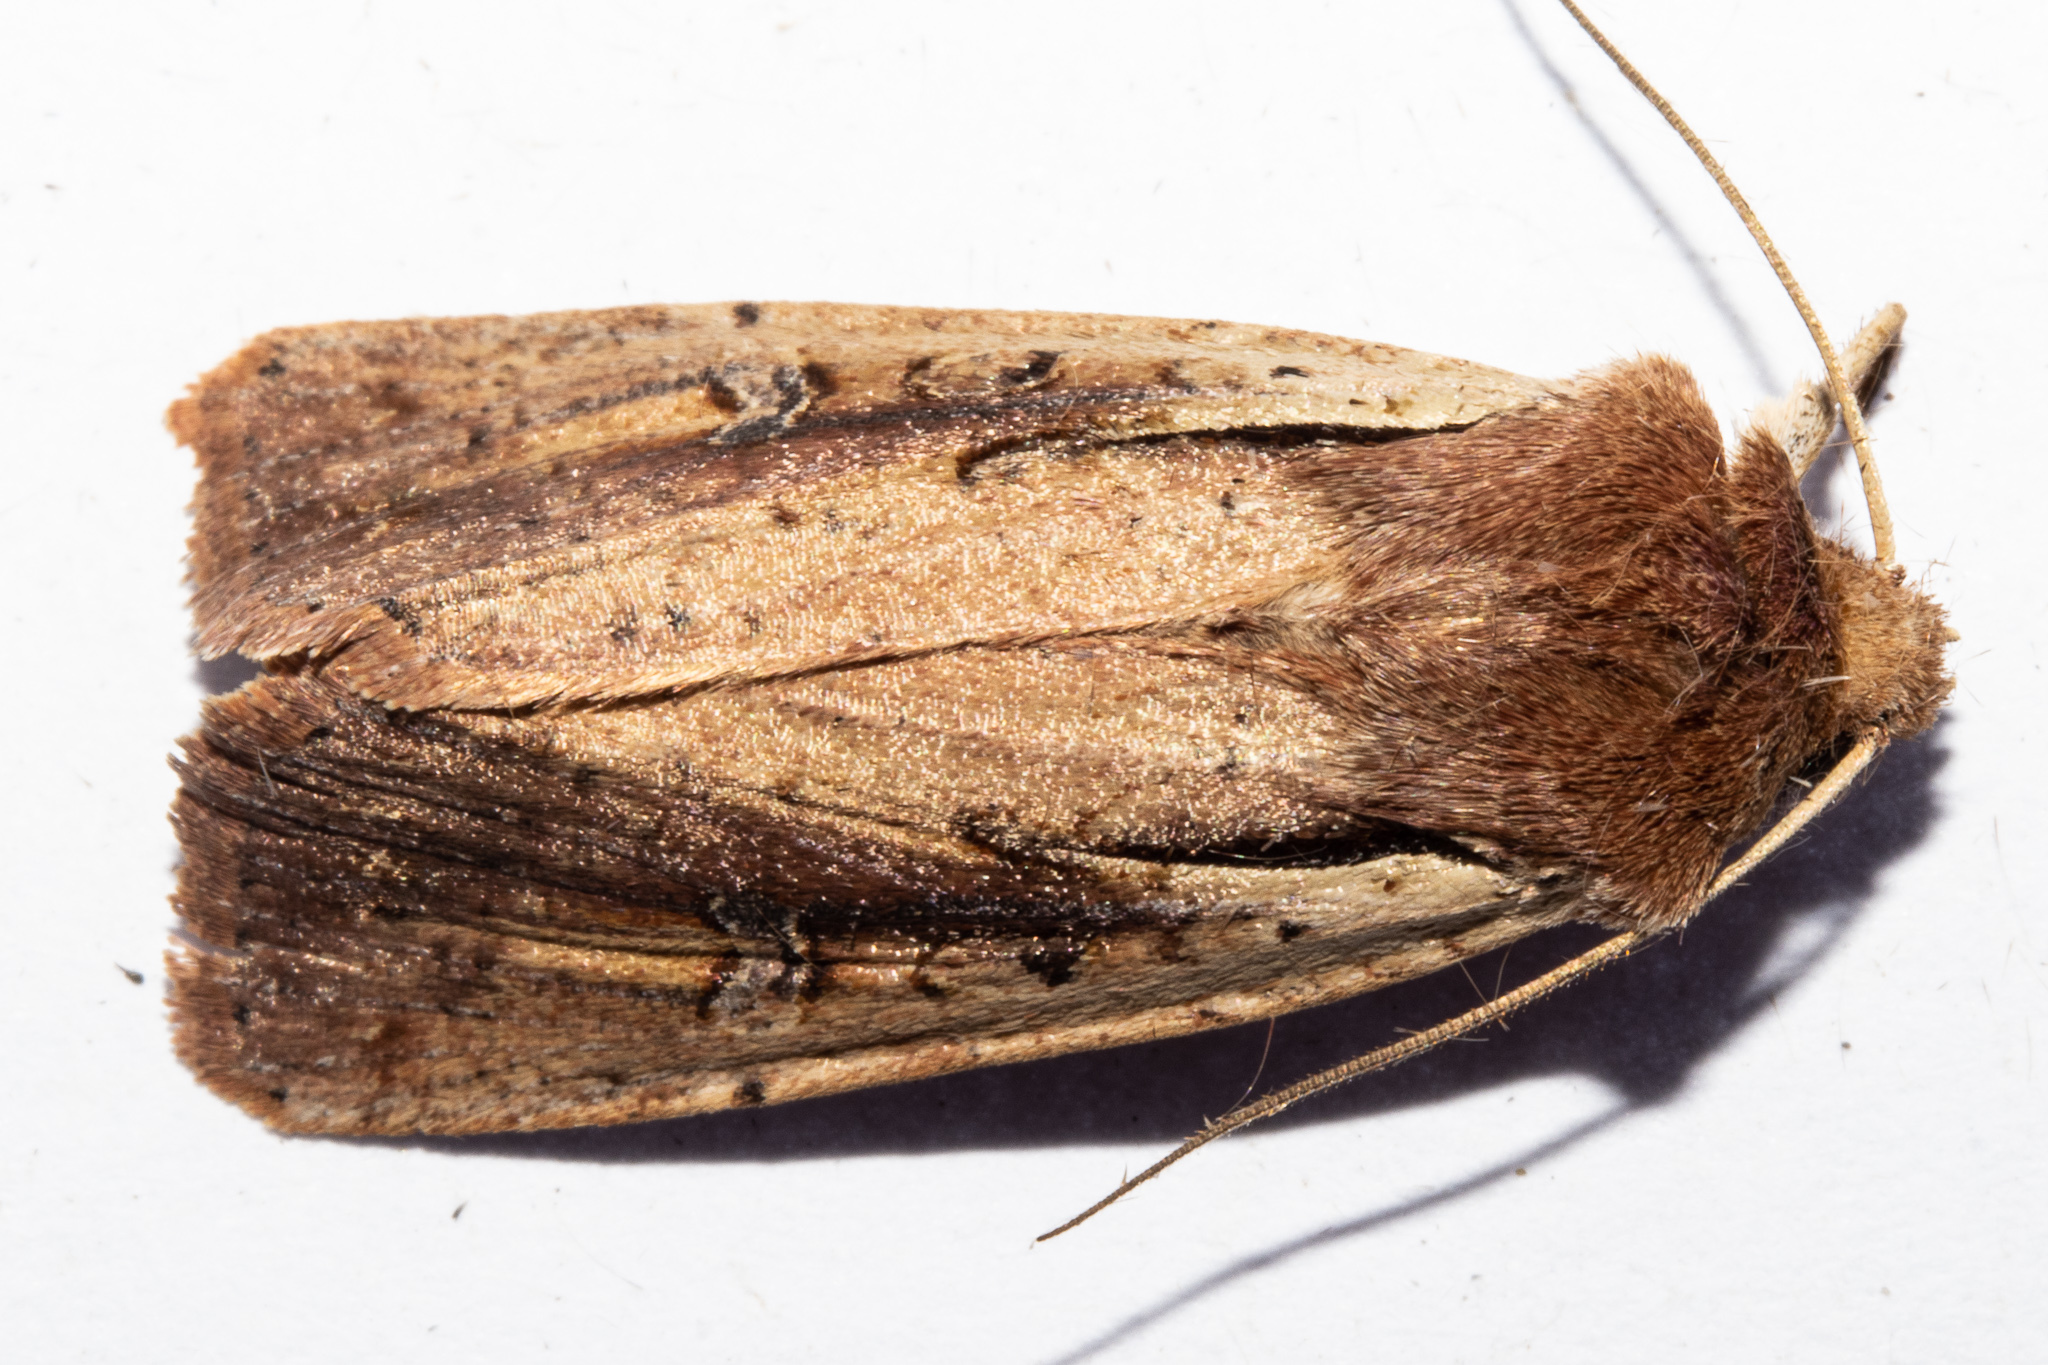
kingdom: Animalia
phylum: Arthropoda
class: Insecta
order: Lepidoptera
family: Noctuidae
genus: Ichneutica
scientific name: Ichneutica atristriga
